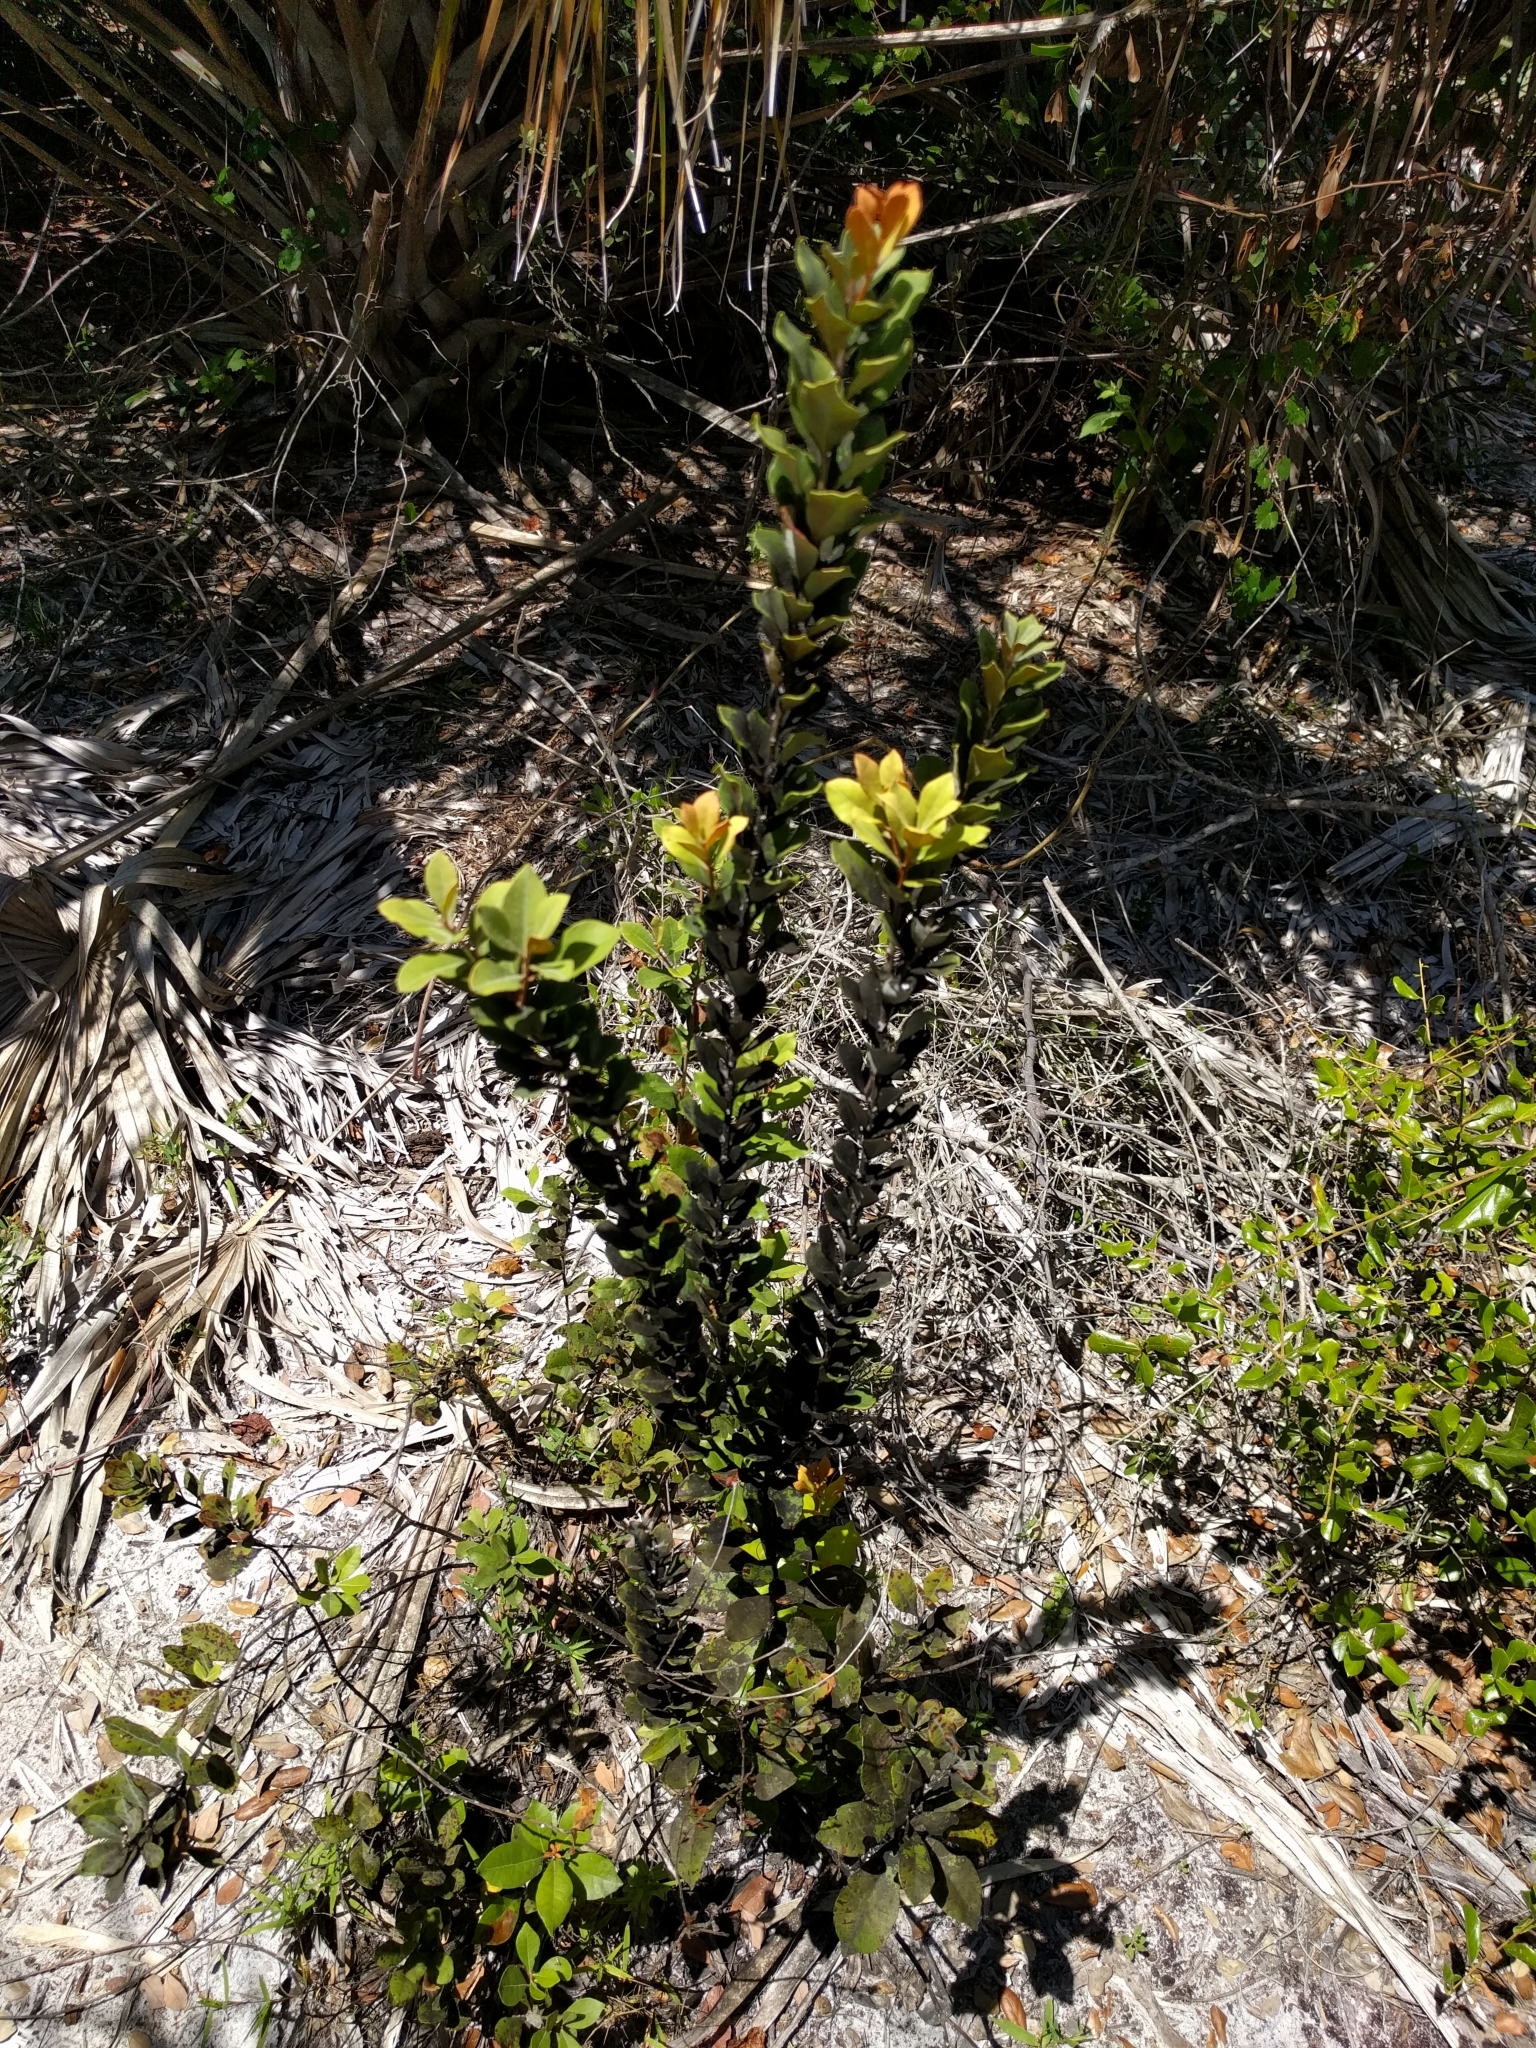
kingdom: Plantae
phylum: Tracheophyta
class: Magnoliopsida
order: Ericales
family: Ericaceae
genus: Lyonia
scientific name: Lyonia fruticosa
